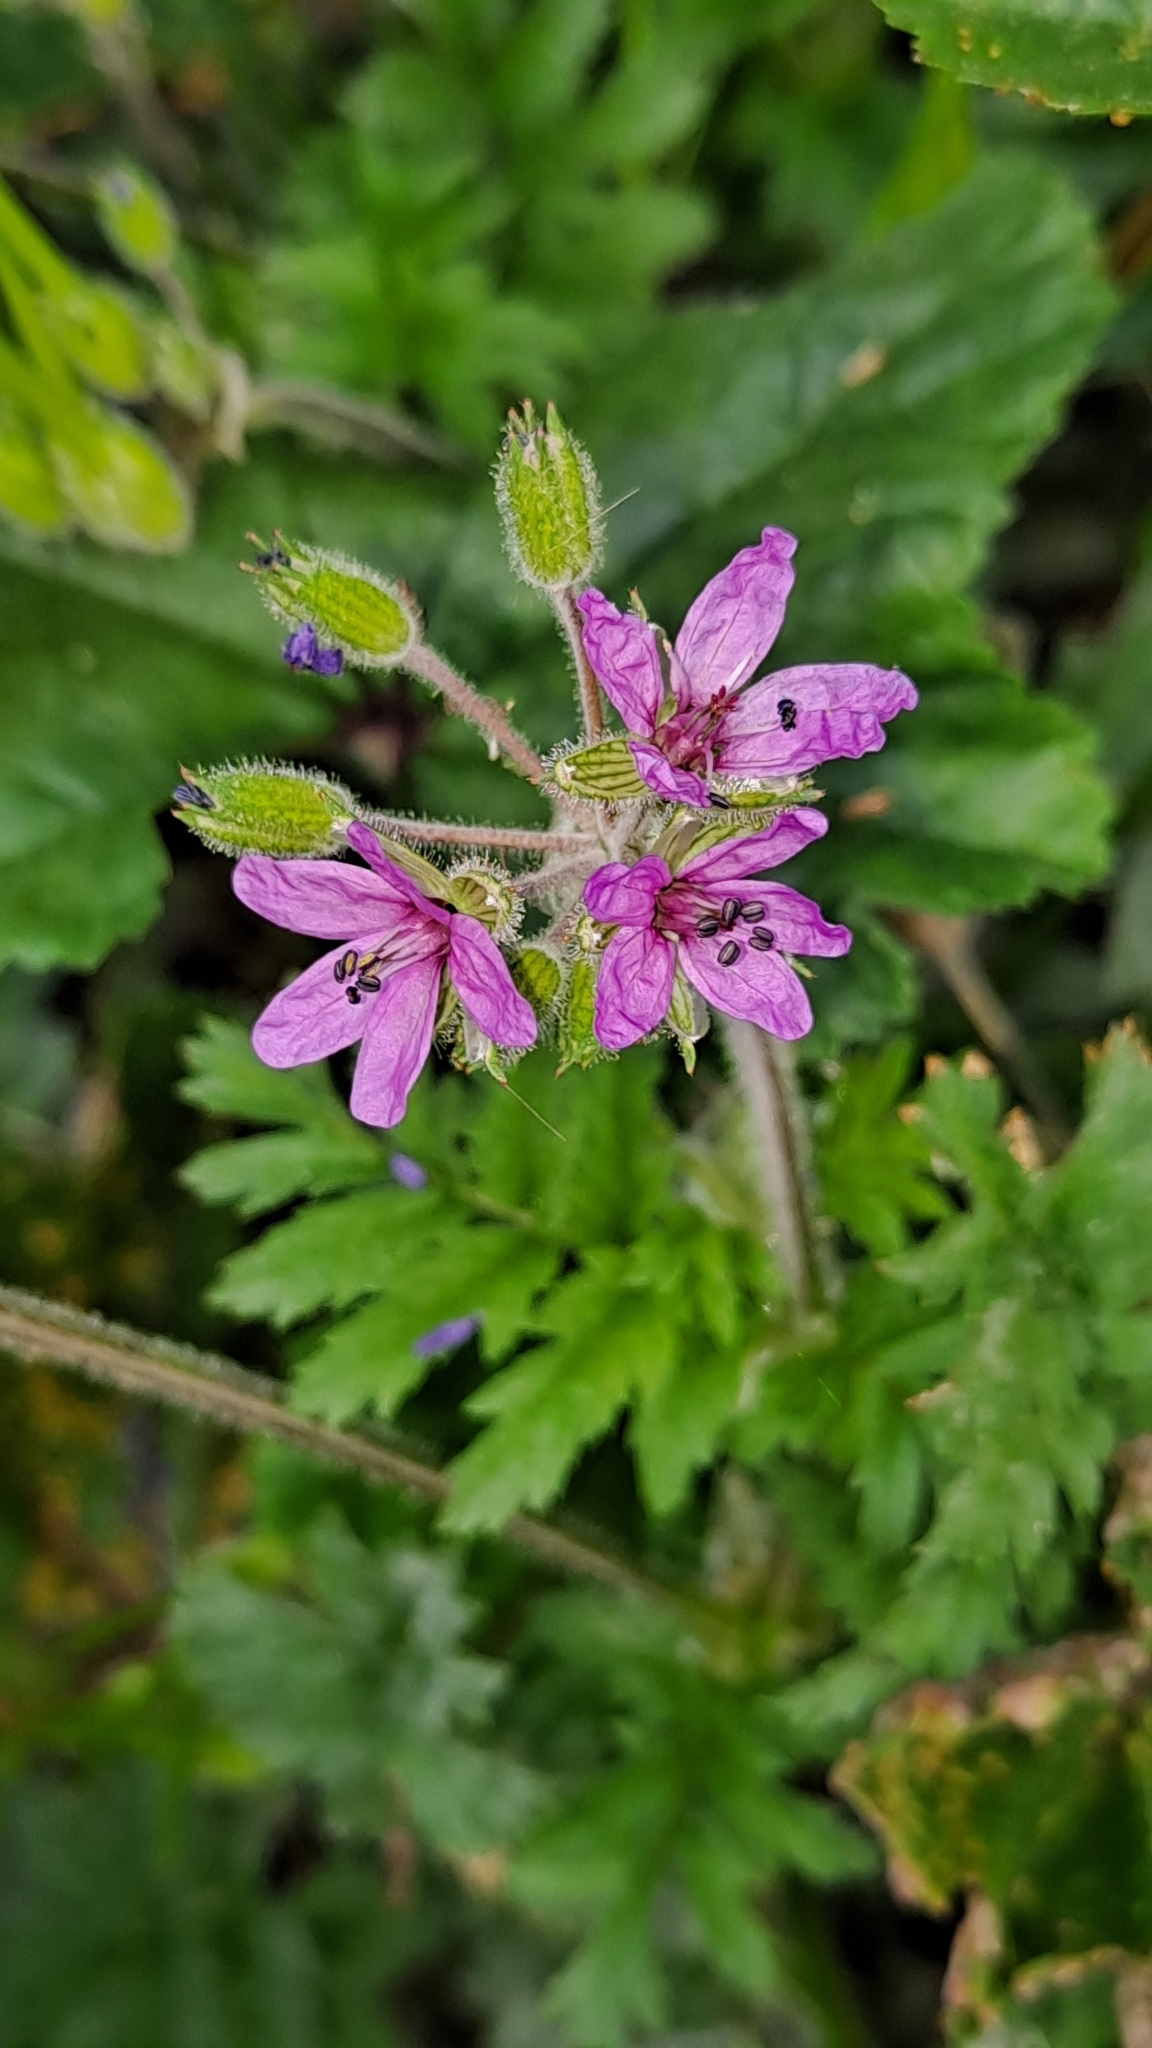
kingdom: Plantae
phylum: Tracheophyta
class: Magnoliopsida
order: Geraniales
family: Geraniaceae
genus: Erodium
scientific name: Erodium moschatum
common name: Musk stork's-bill
